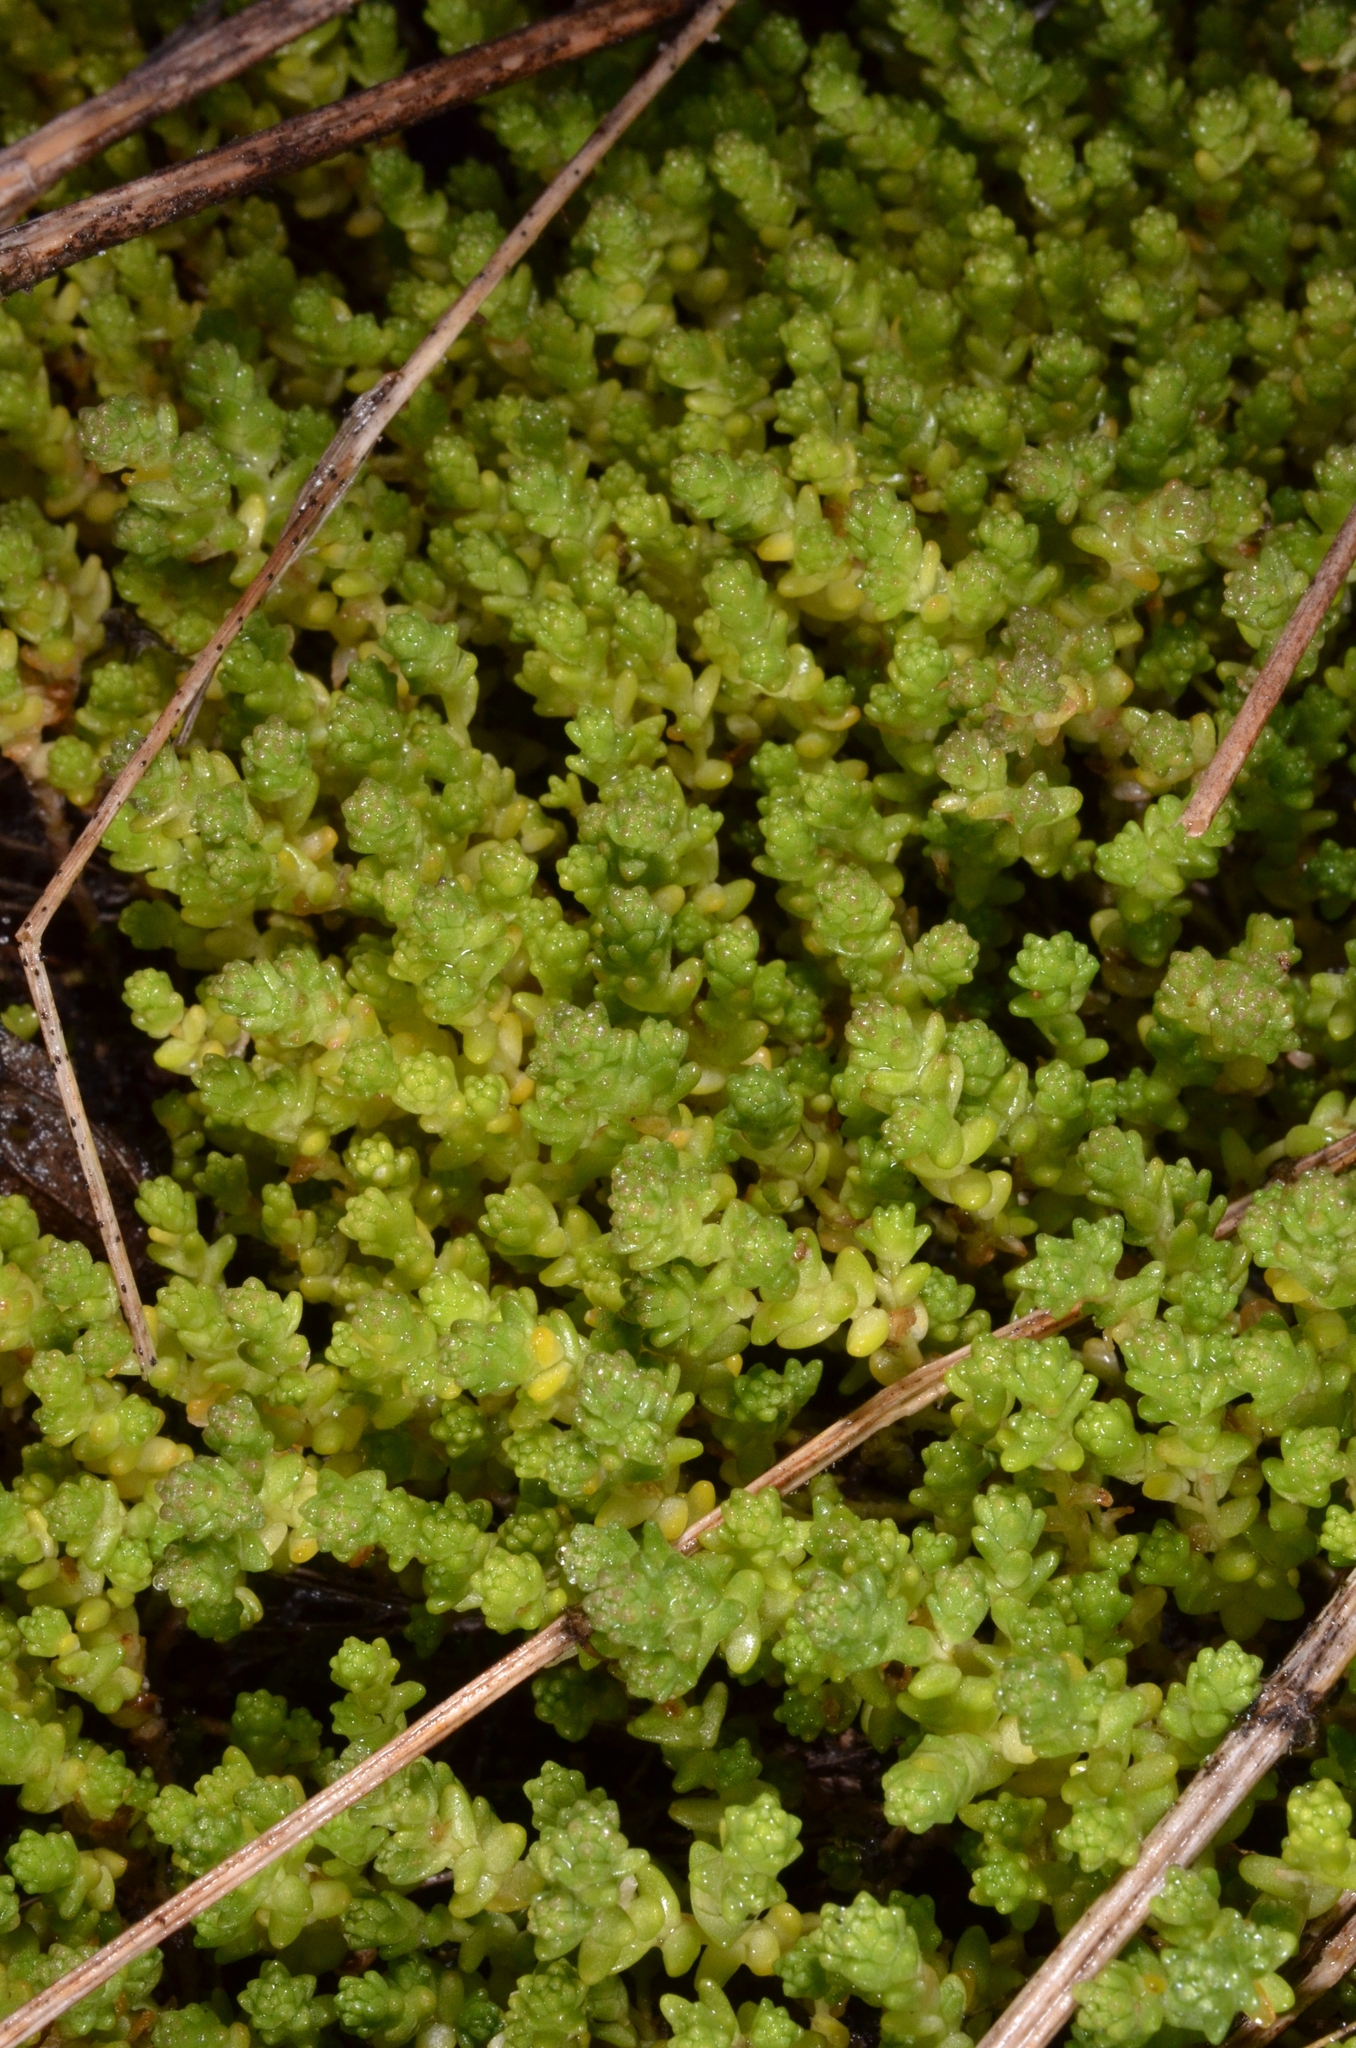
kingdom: Plantae
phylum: Tracheophyta
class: Magnoliopsida
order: Saxifragales
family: Crassulaceae
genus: Sedum
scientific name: Sedum acre
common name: Biting stonecrop
